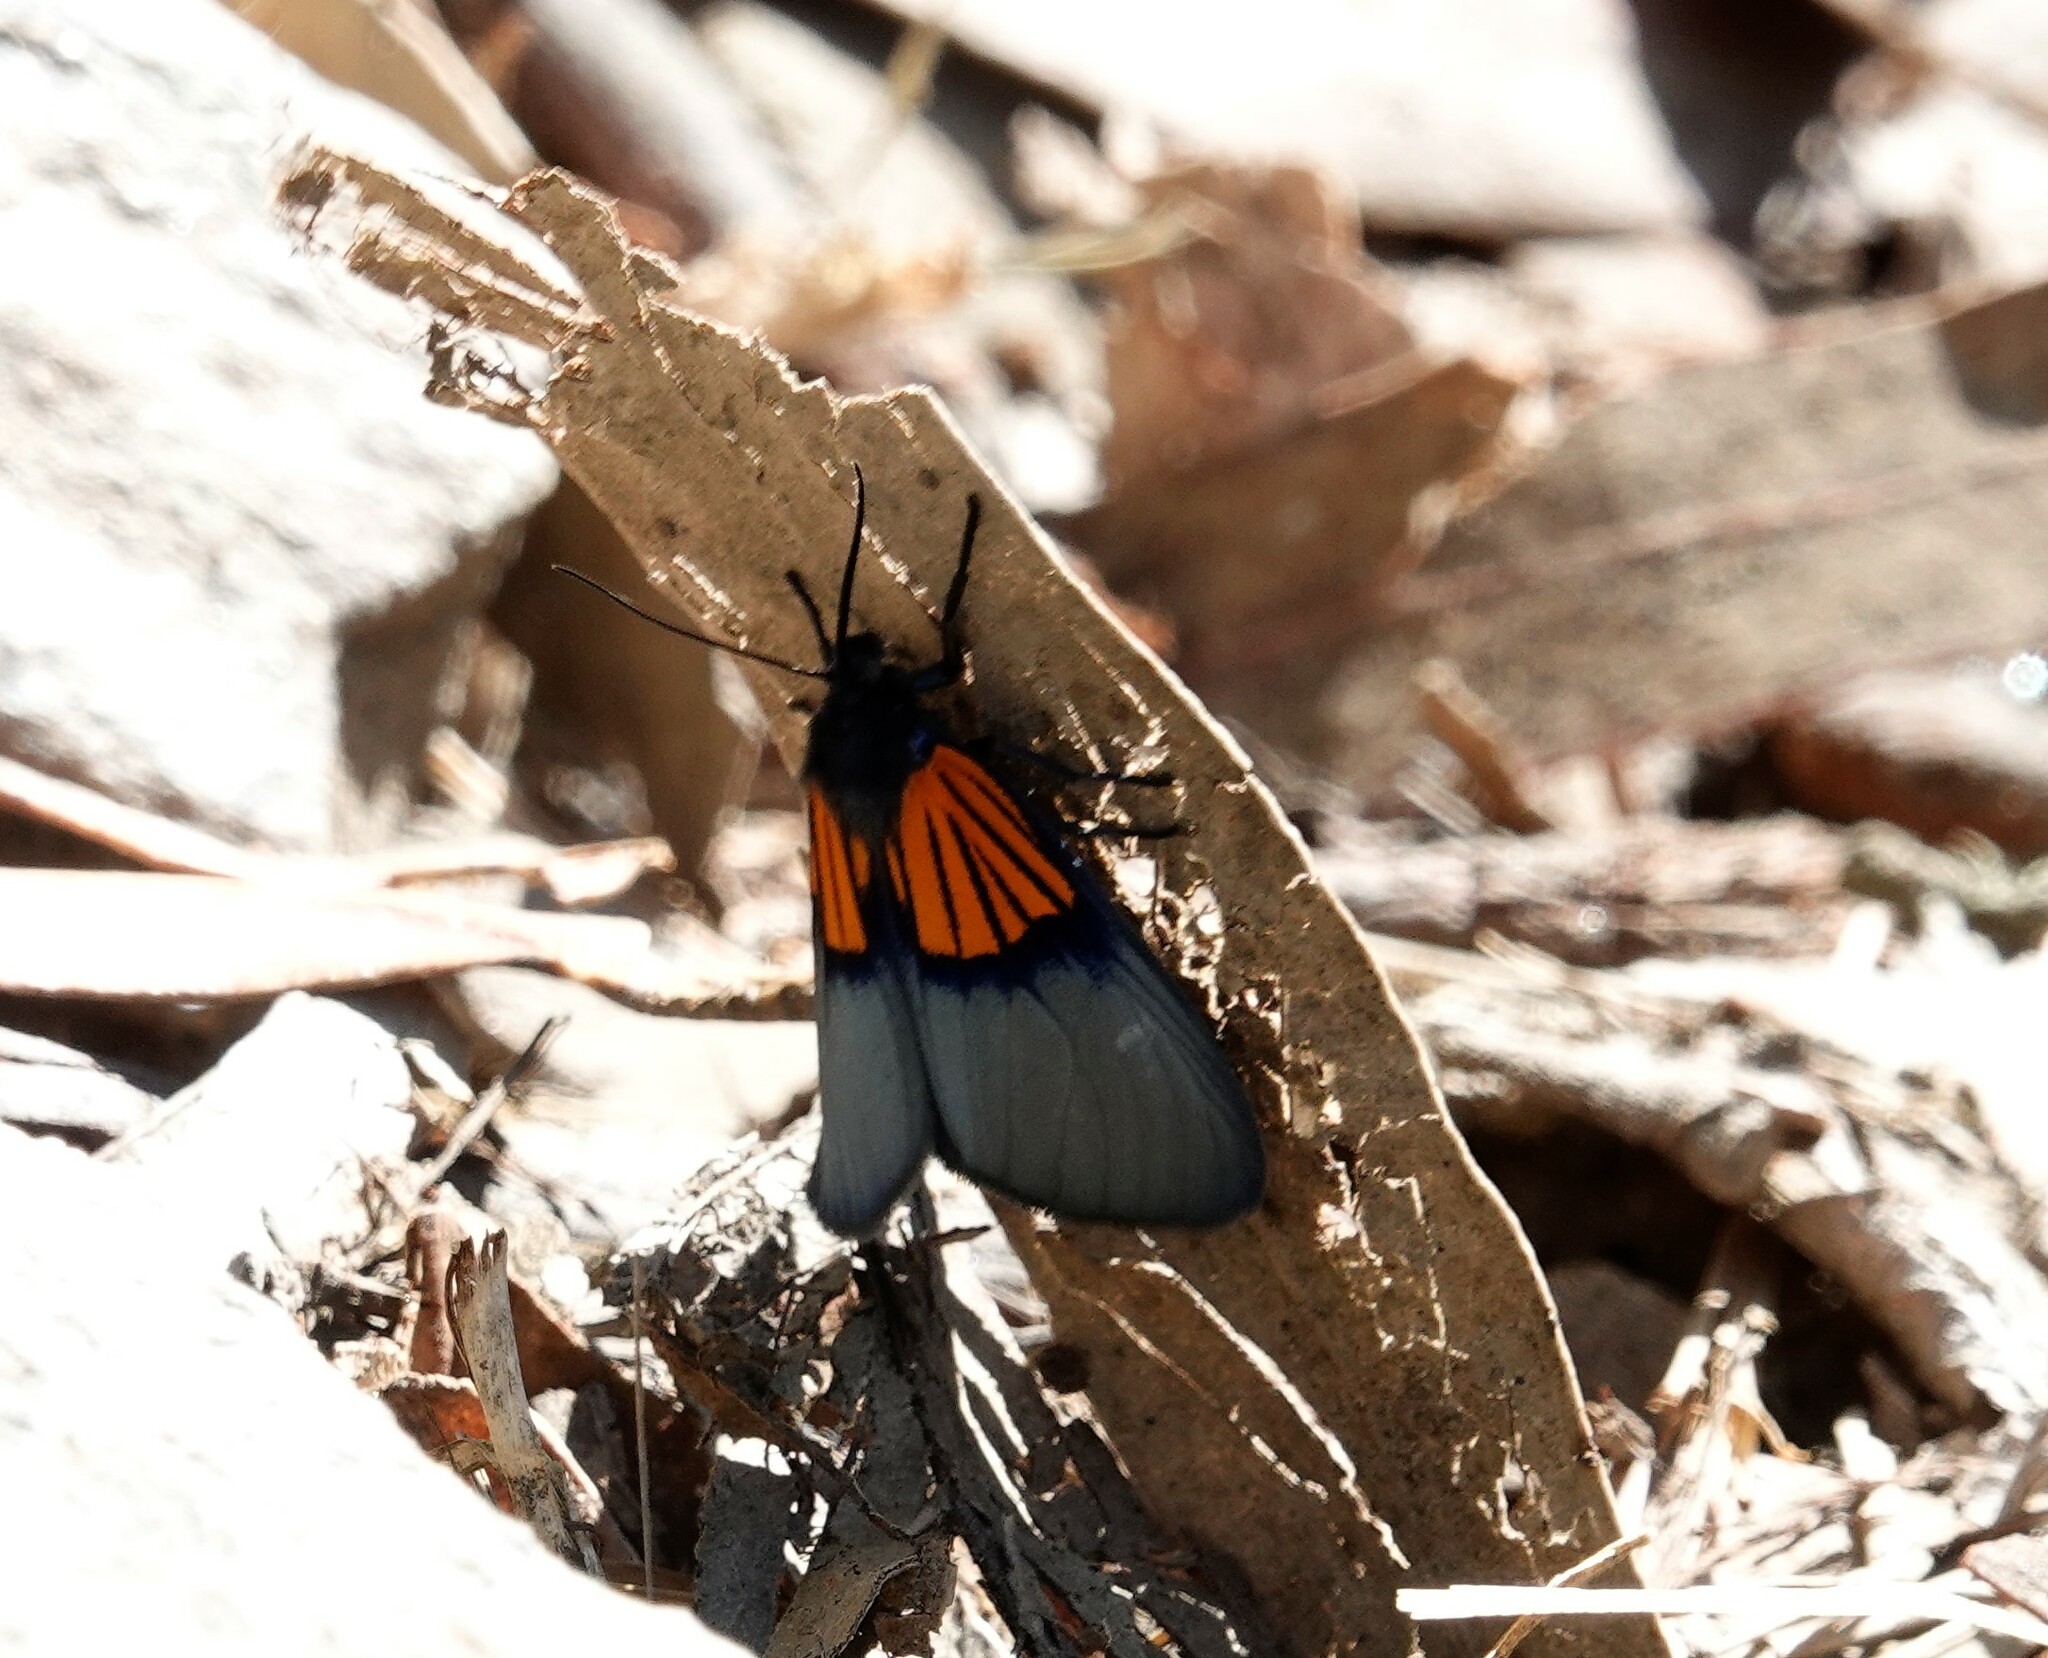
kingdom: Animalia
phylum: Arthropoda
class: Insecta
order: Lepidoptera
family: Notodontidae
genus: Scea
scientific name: Scea
